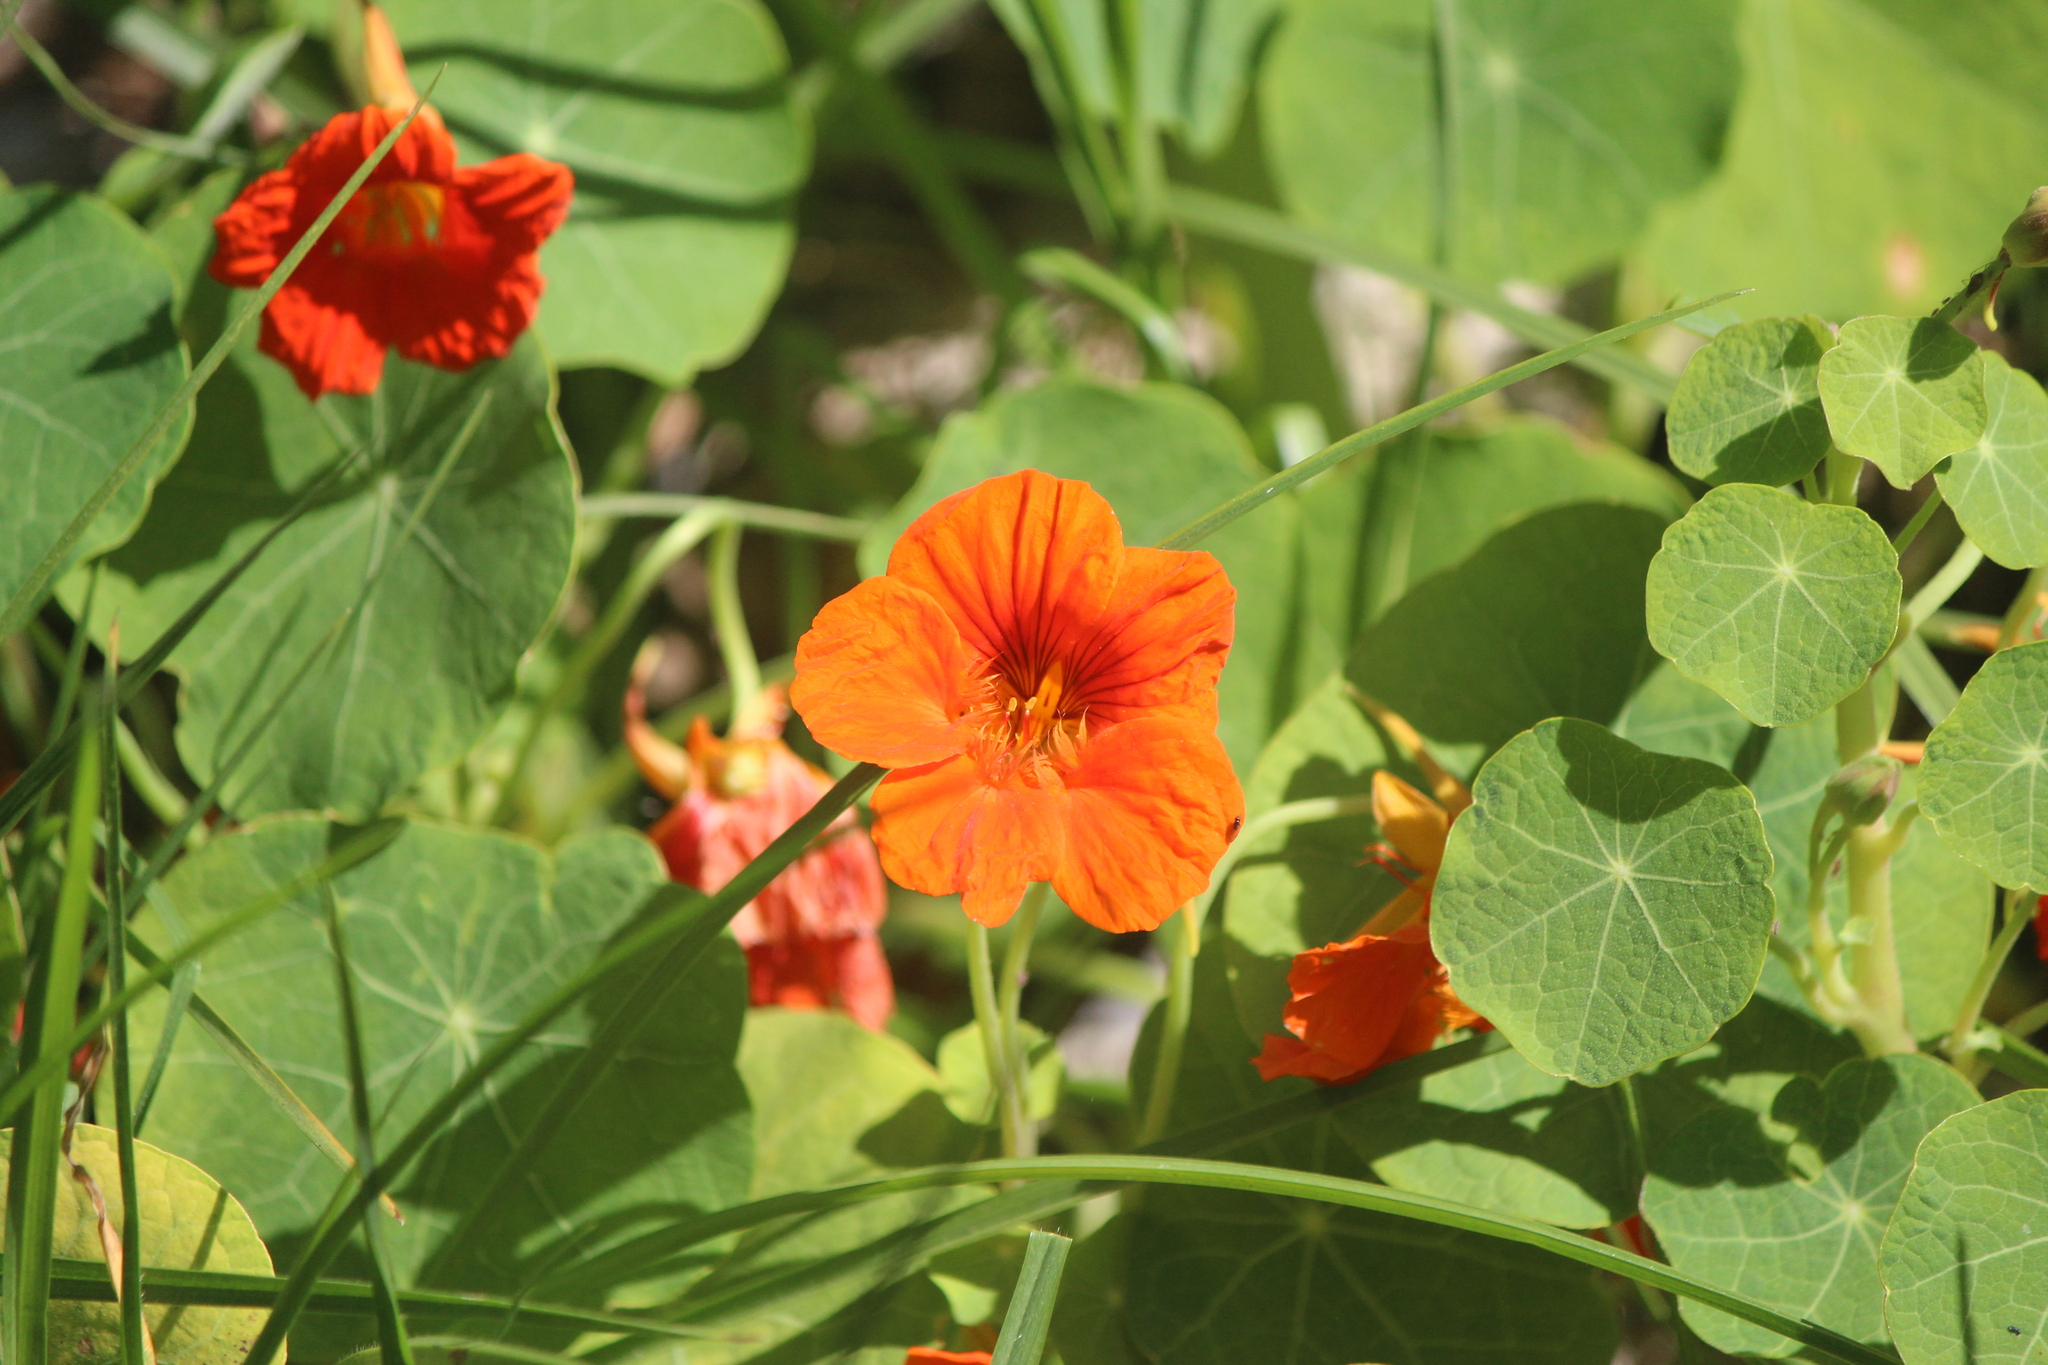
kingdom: Plantae
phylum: Tracheophyta
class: Magnoliopsida
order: Brassicales
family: Tropaeolaceae
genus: Tropaeolum
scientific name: Tropaeolum majus
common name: Nasturtium
